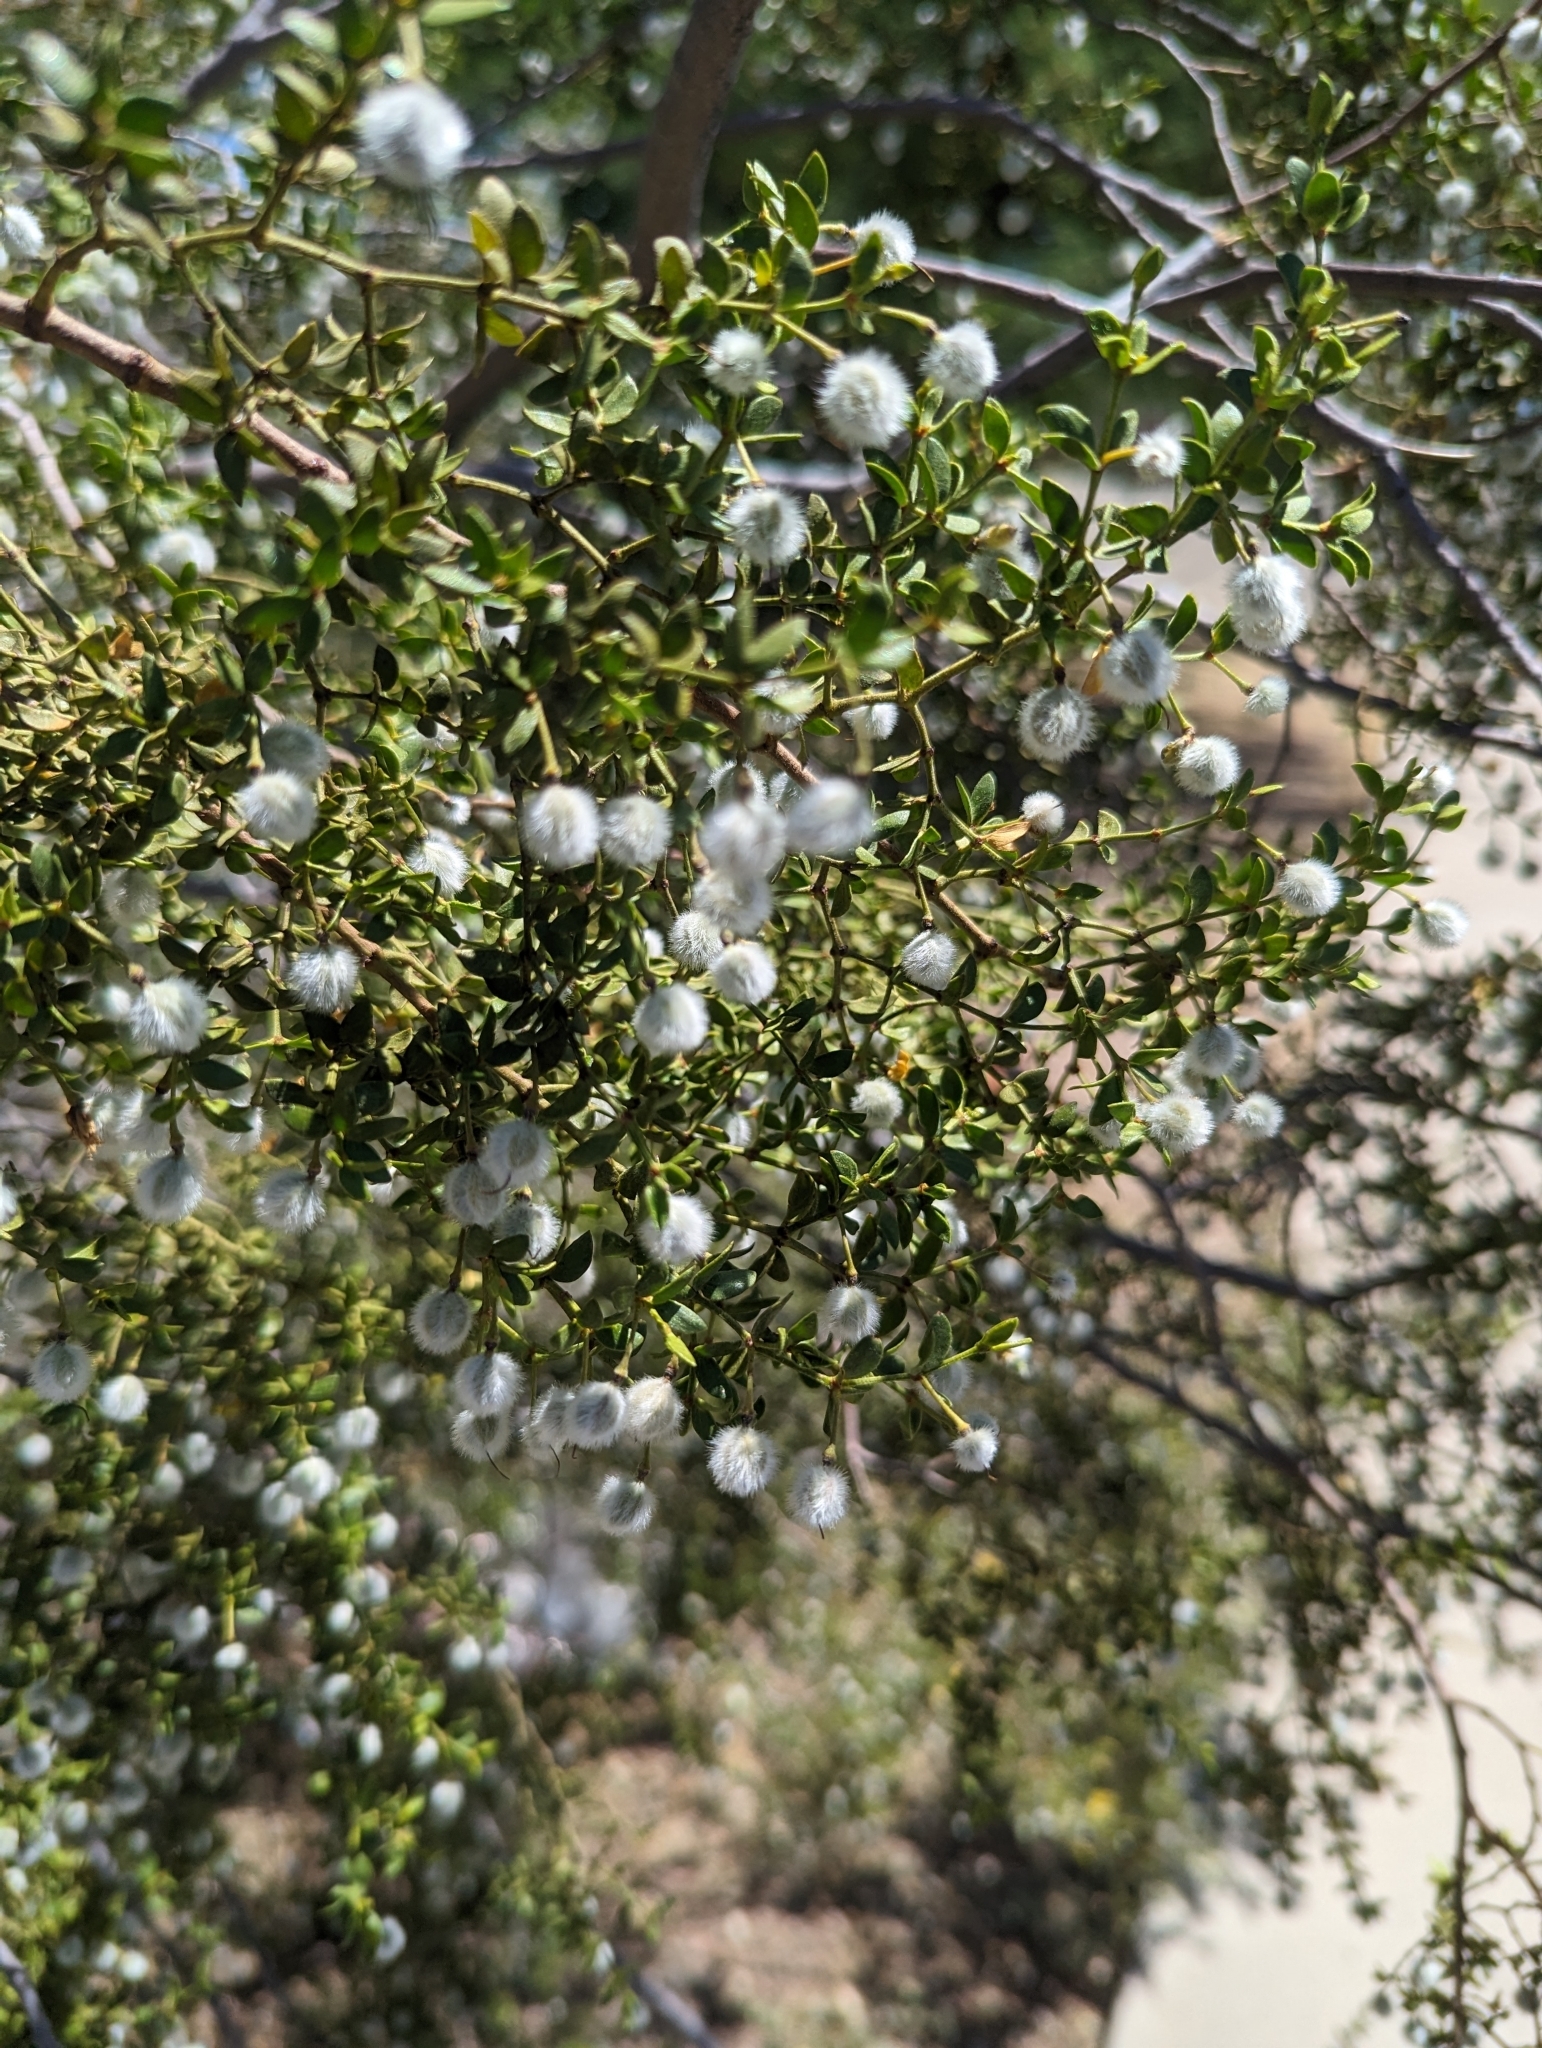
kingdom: Plantae
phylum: Tracheophyta
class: Magnoliopsida
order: Zygophyllales
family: Zygophyllaceae
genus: Larrea
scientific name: Larrea tridentata
